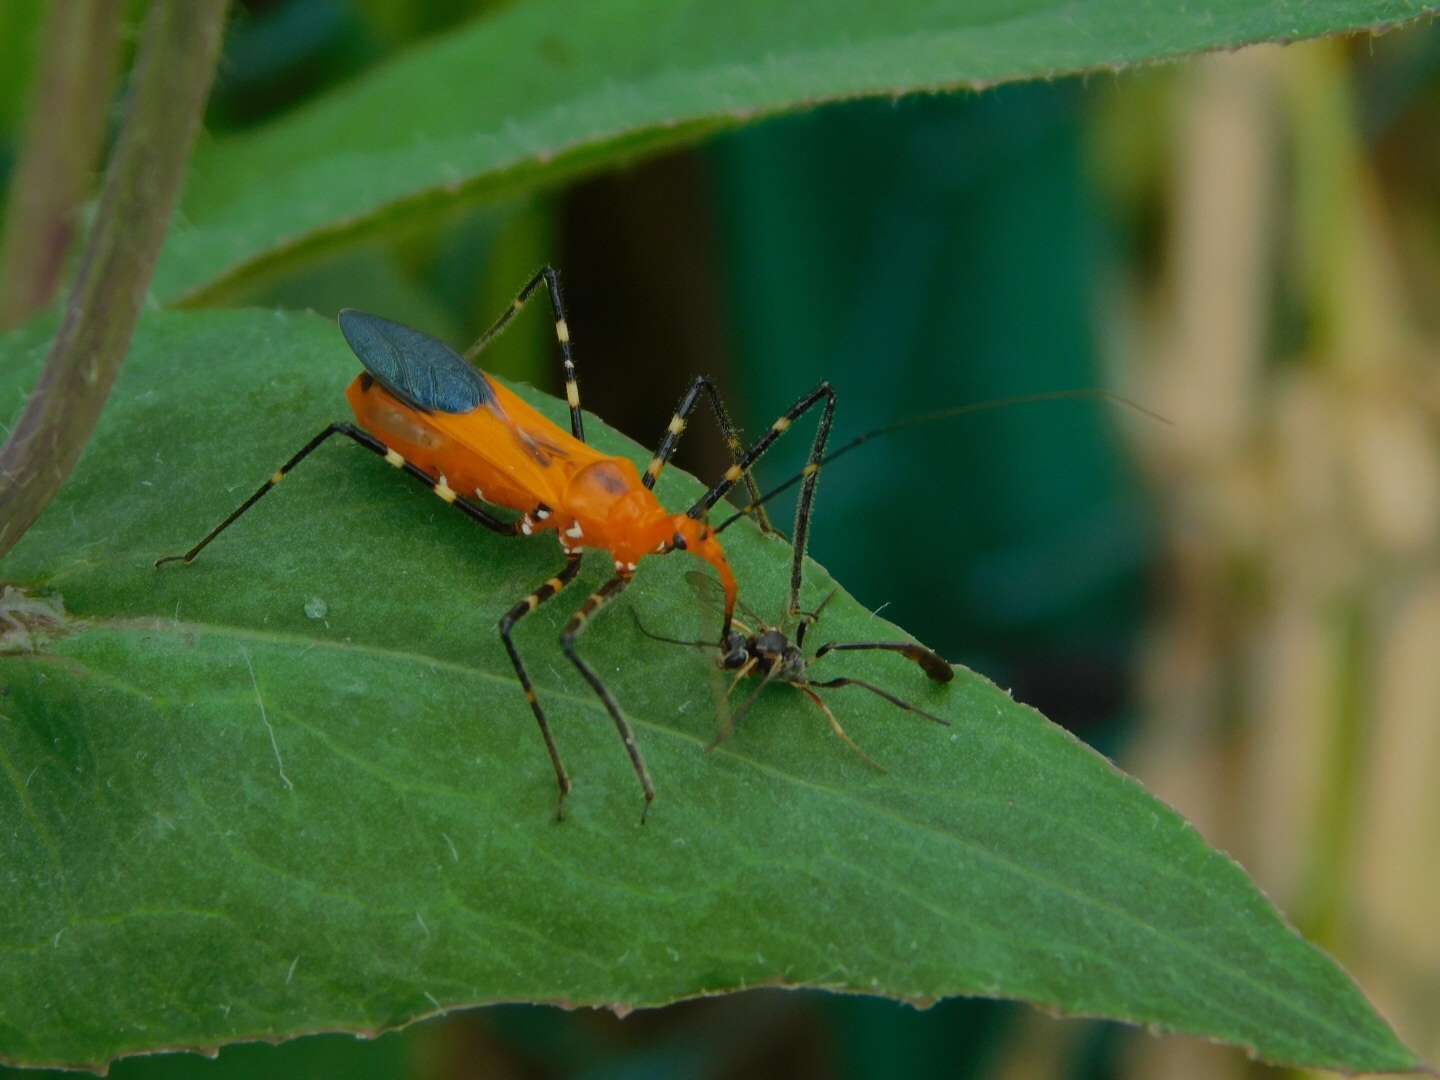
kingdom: Animalia
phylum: Arthropoda
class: Insecta
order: Hemiptera
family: Reduviidae
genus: Zelus
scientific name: Zelus longipes
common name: Milkweed assassin bug
